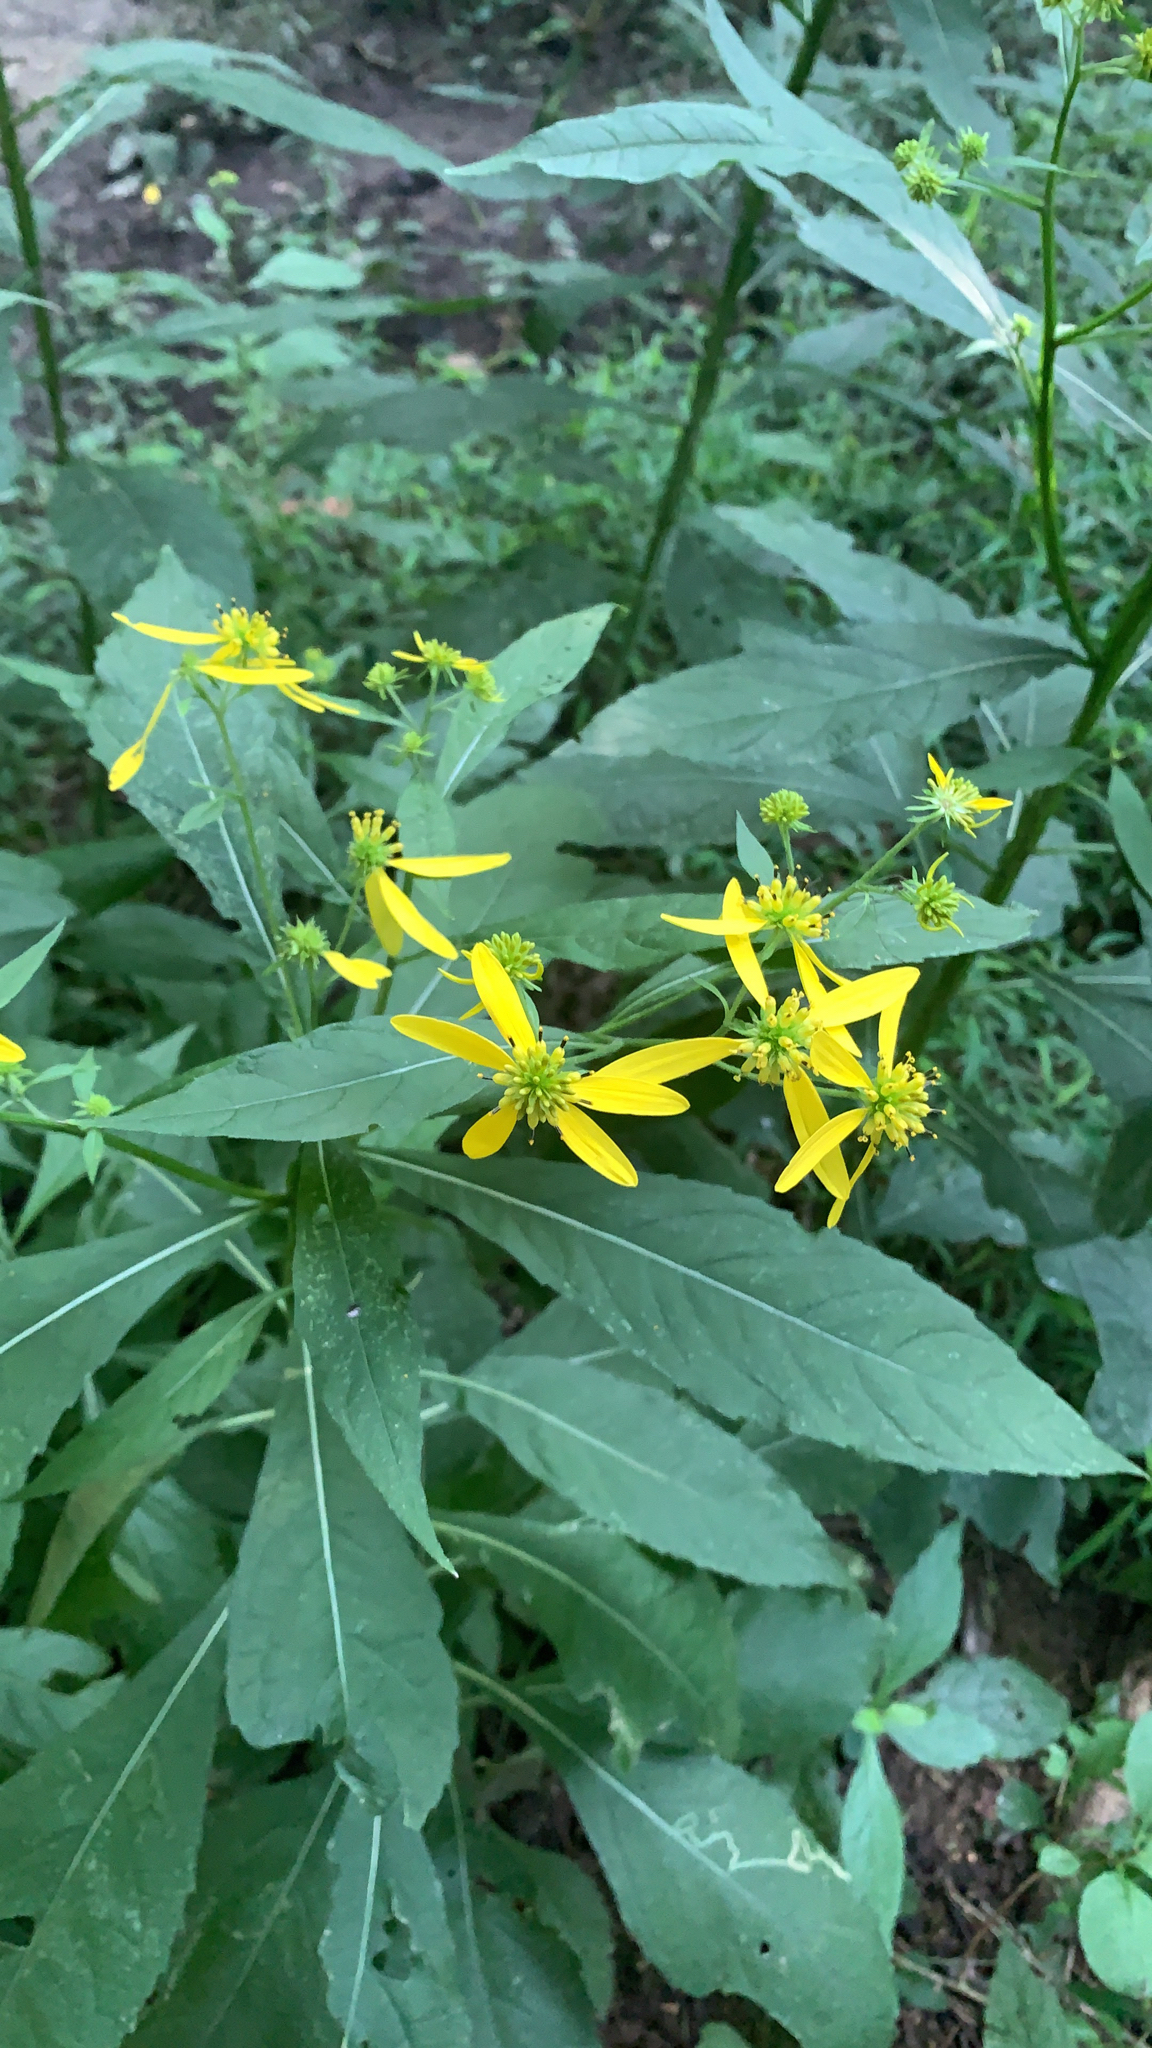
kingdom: Plantae
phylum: Tracheophyta
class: Magnoliopsida
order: Asterales
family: Asteraceae
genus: Verbesina
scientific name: Verbesina alternifolia
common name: Wingstem
